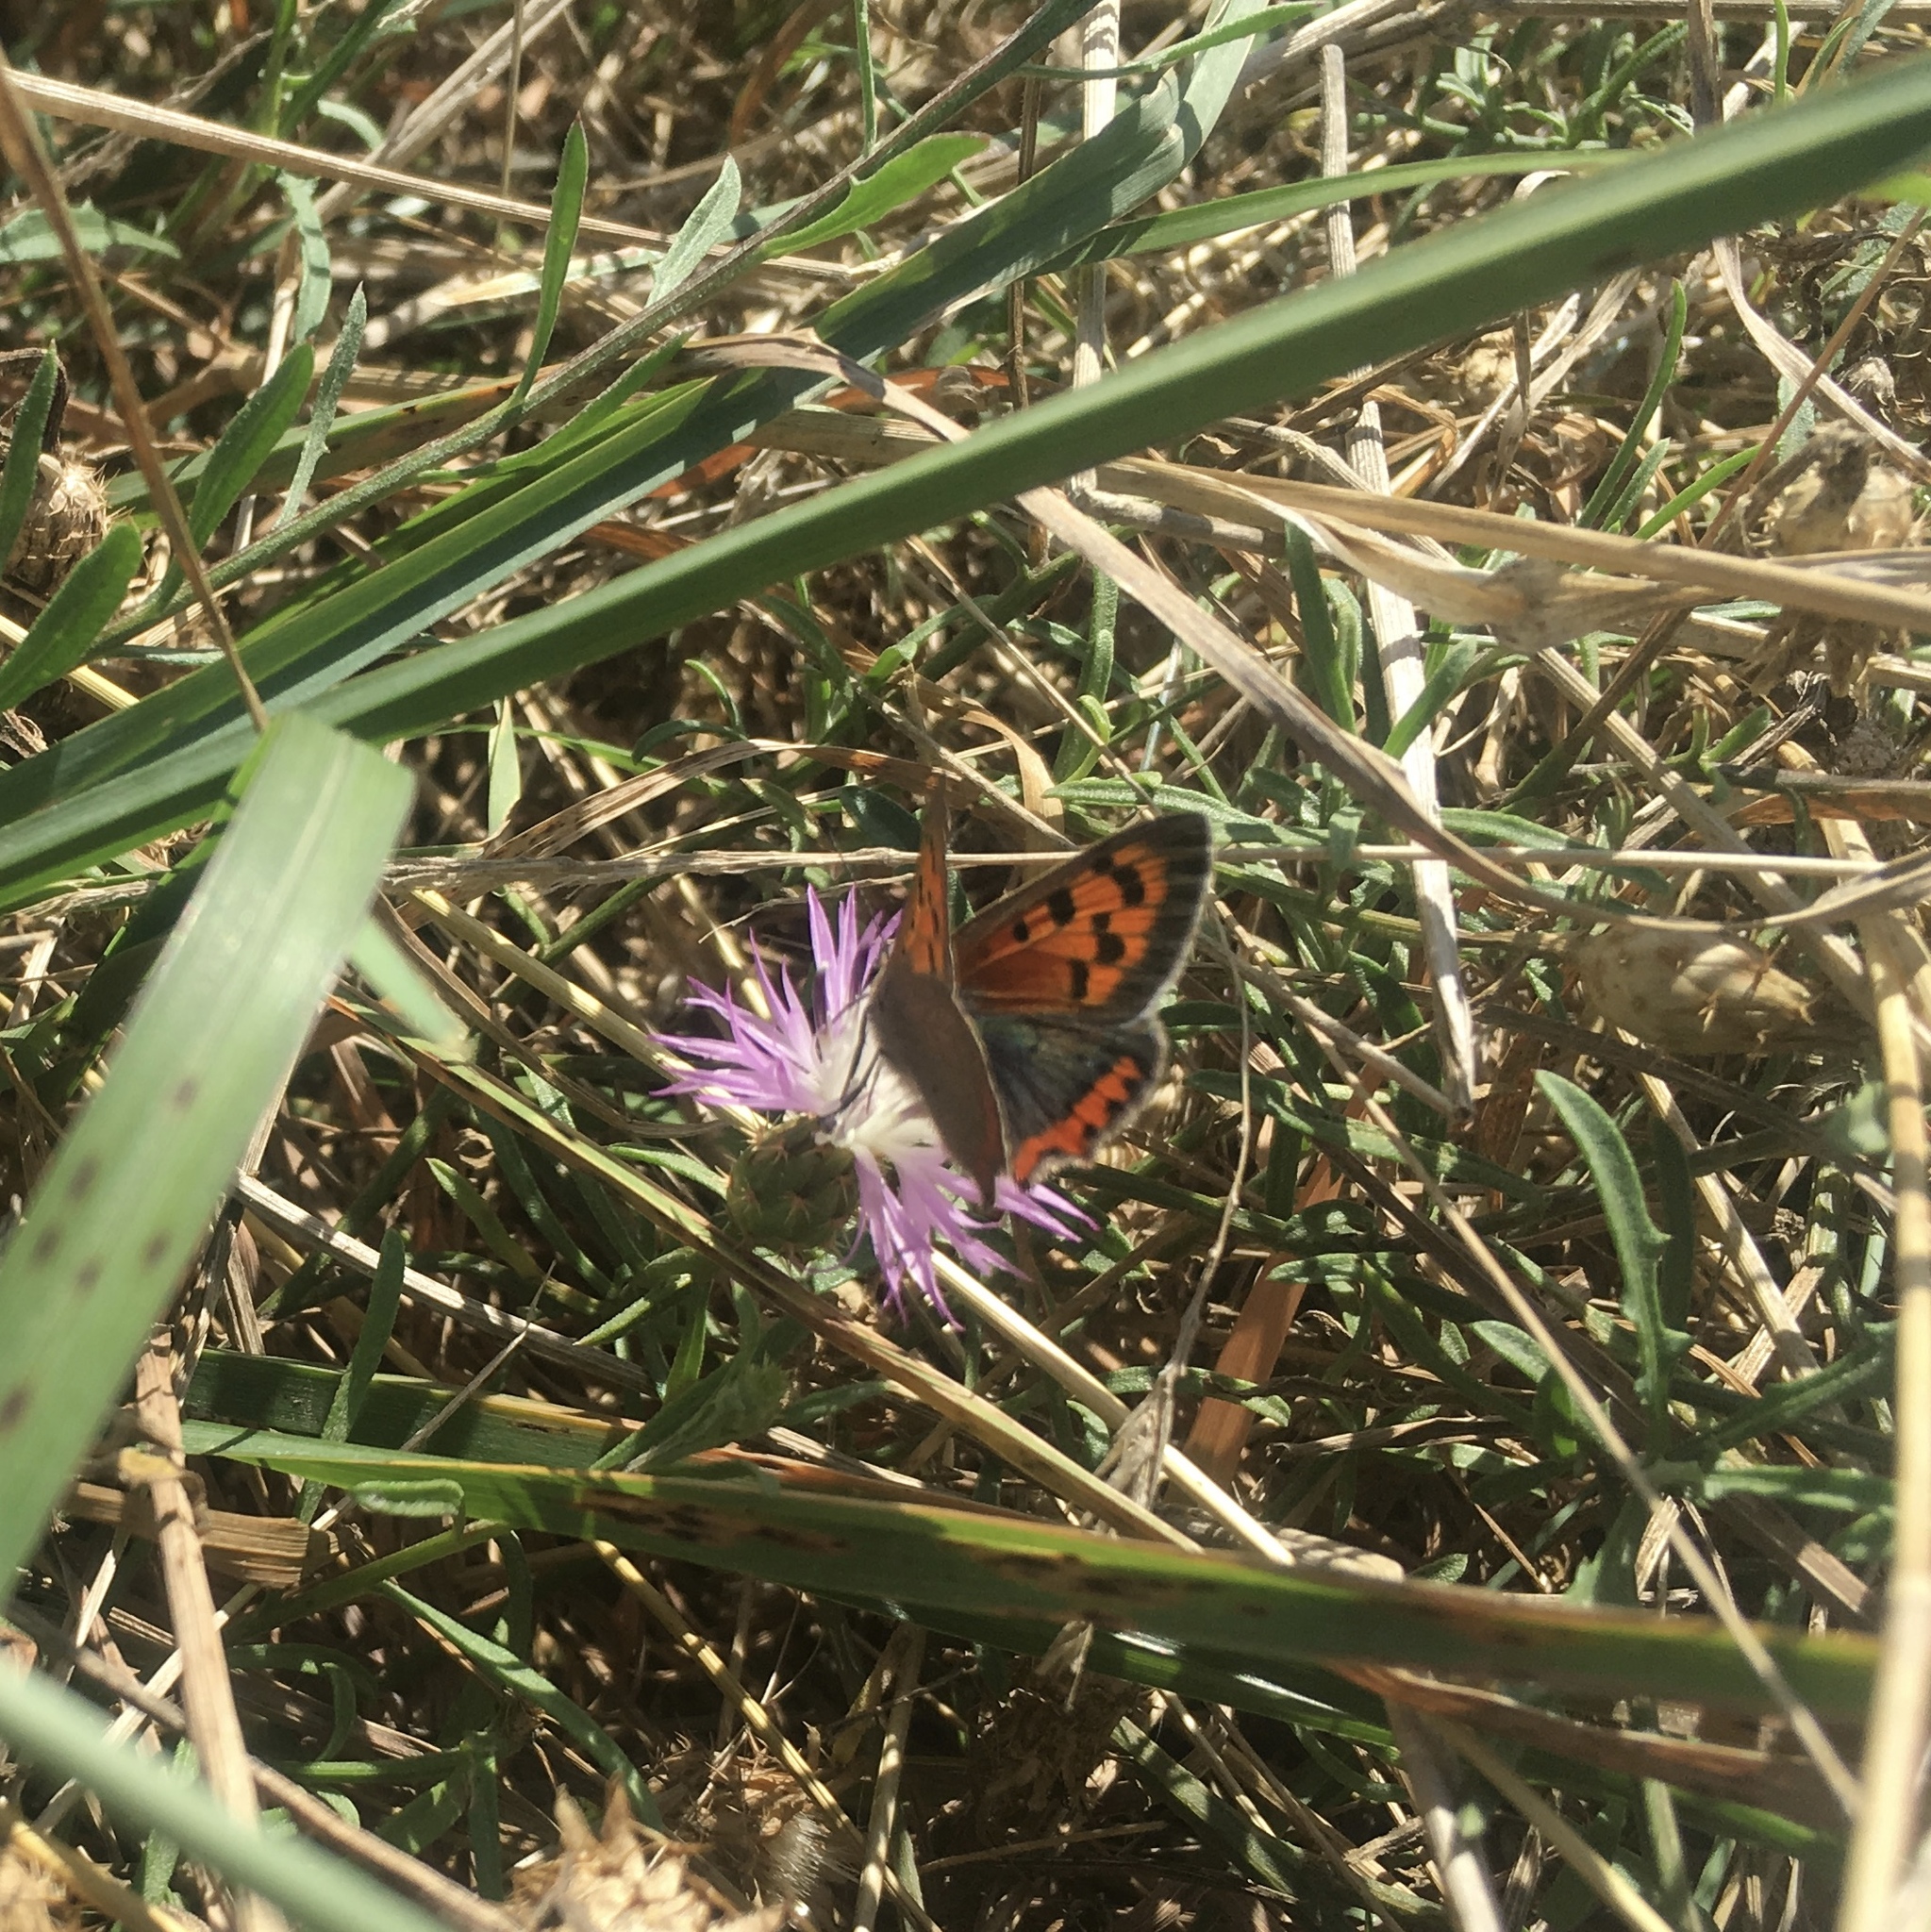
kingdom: Animalia
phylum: Arthropoda
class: Insecta
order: Lepidoptera
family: Lycaenidae
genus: Lycaena
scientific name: Lycaena phlaeas
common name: Small copper
